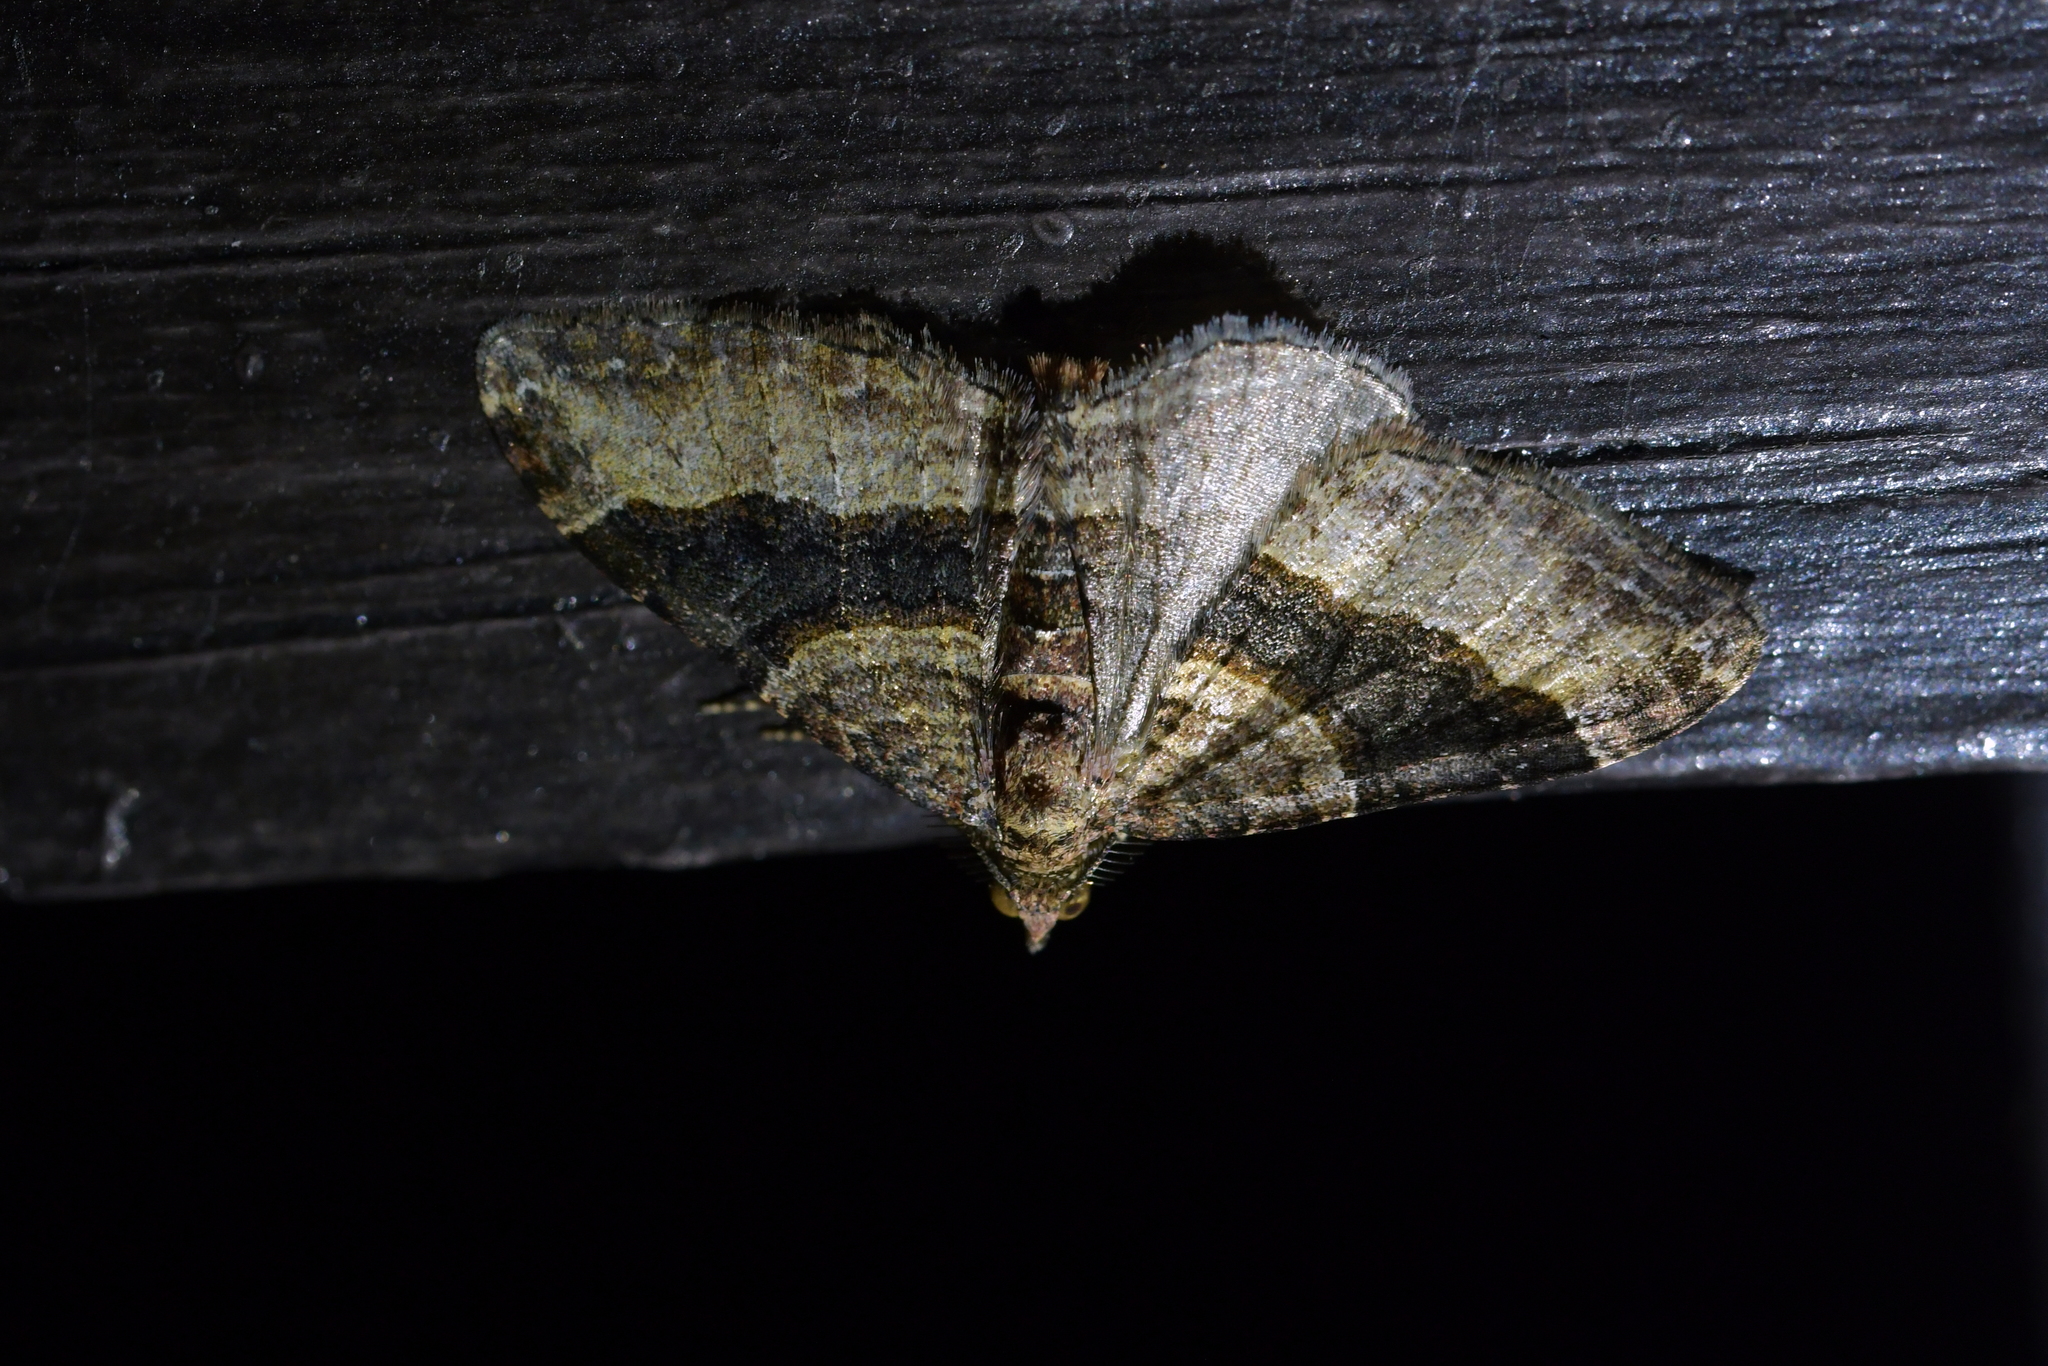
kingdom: Animalia
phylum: Arthropoda
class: Insecta
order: Lepidoptera
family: Geometridae
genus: Epyaxa
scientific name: Epyaxa lucidata
